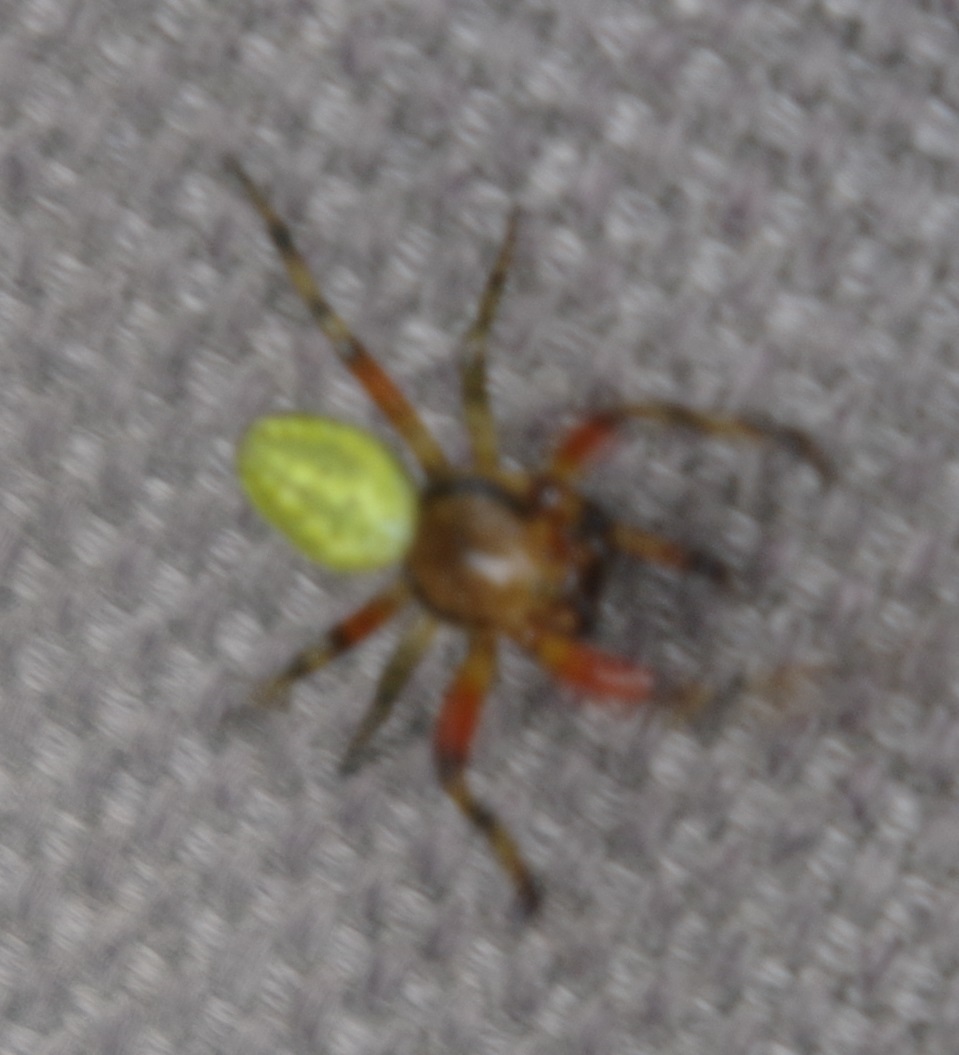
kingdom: Animalia
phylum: Arthropoda
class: Arachnida
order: Araneae
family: Araneidae
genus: Araniella
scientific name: Araniella
